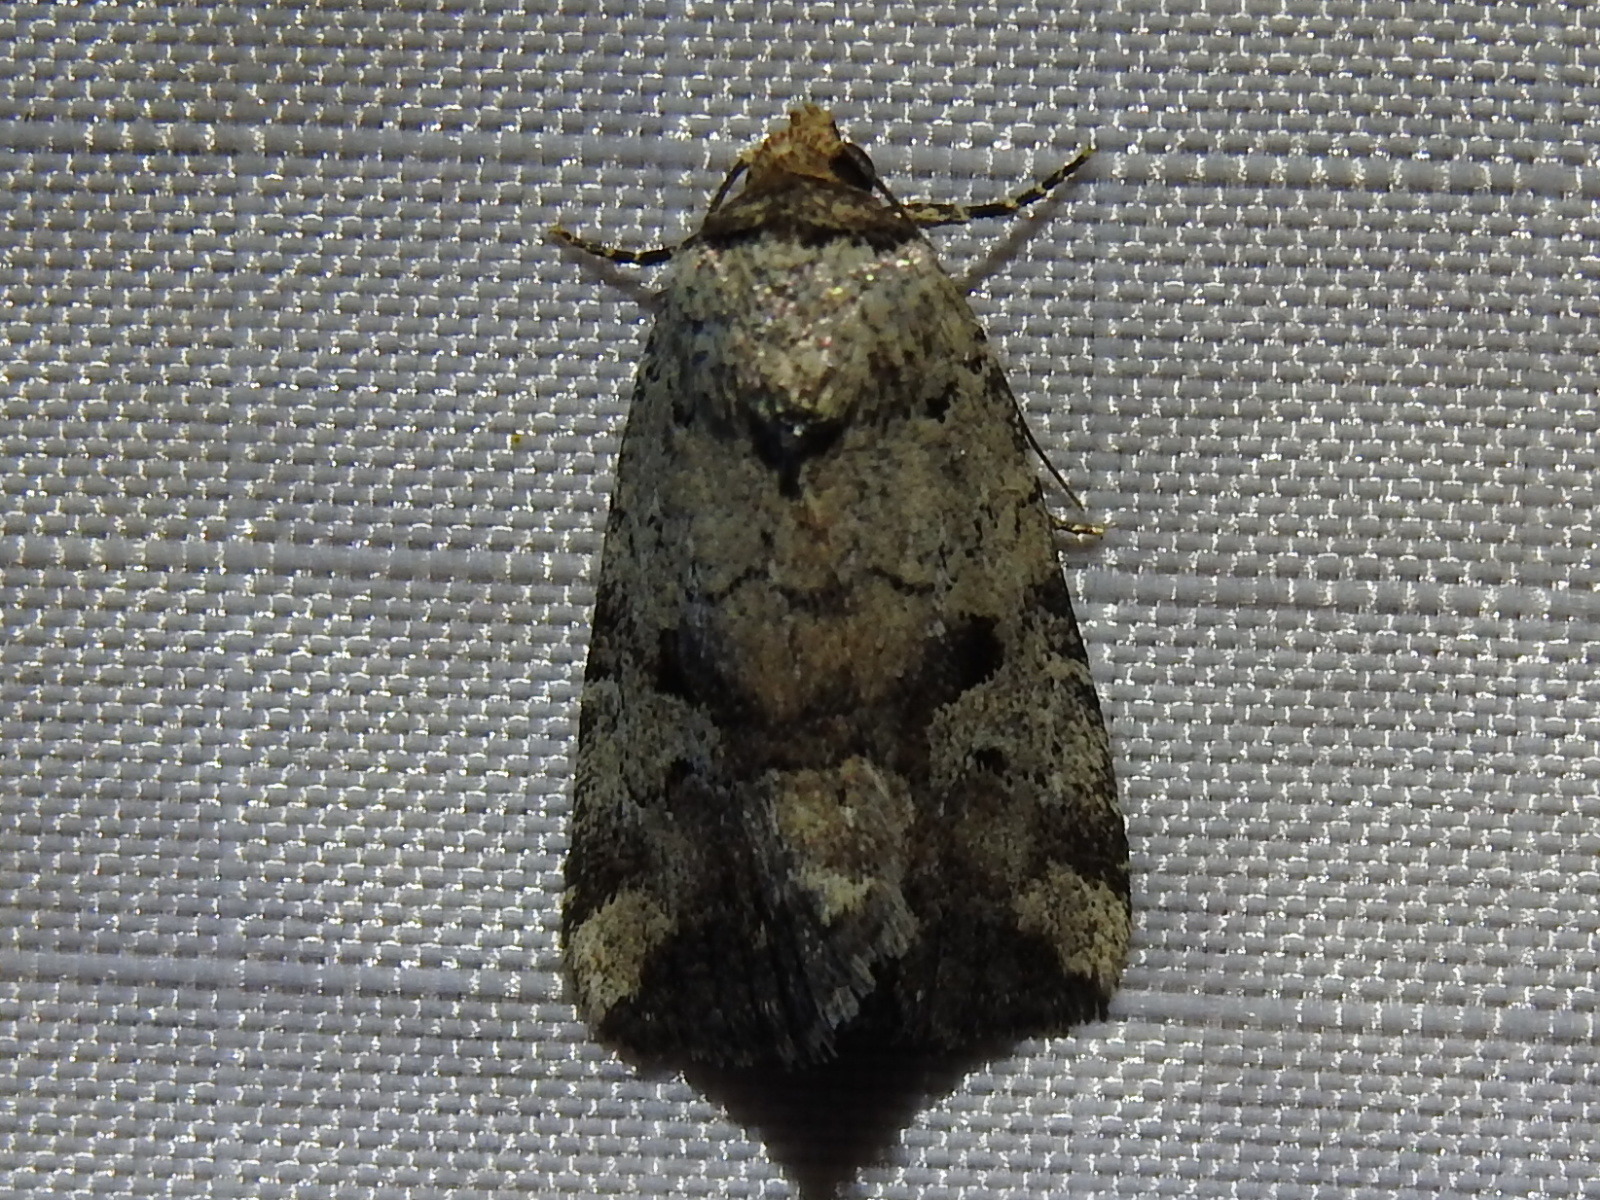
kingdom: Animalia
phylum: Arthropoda
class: Insecta
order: Lepidoptera
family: Noctuidae
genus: Elaphria
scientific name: Elaphria festivoides
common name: Festive midget
